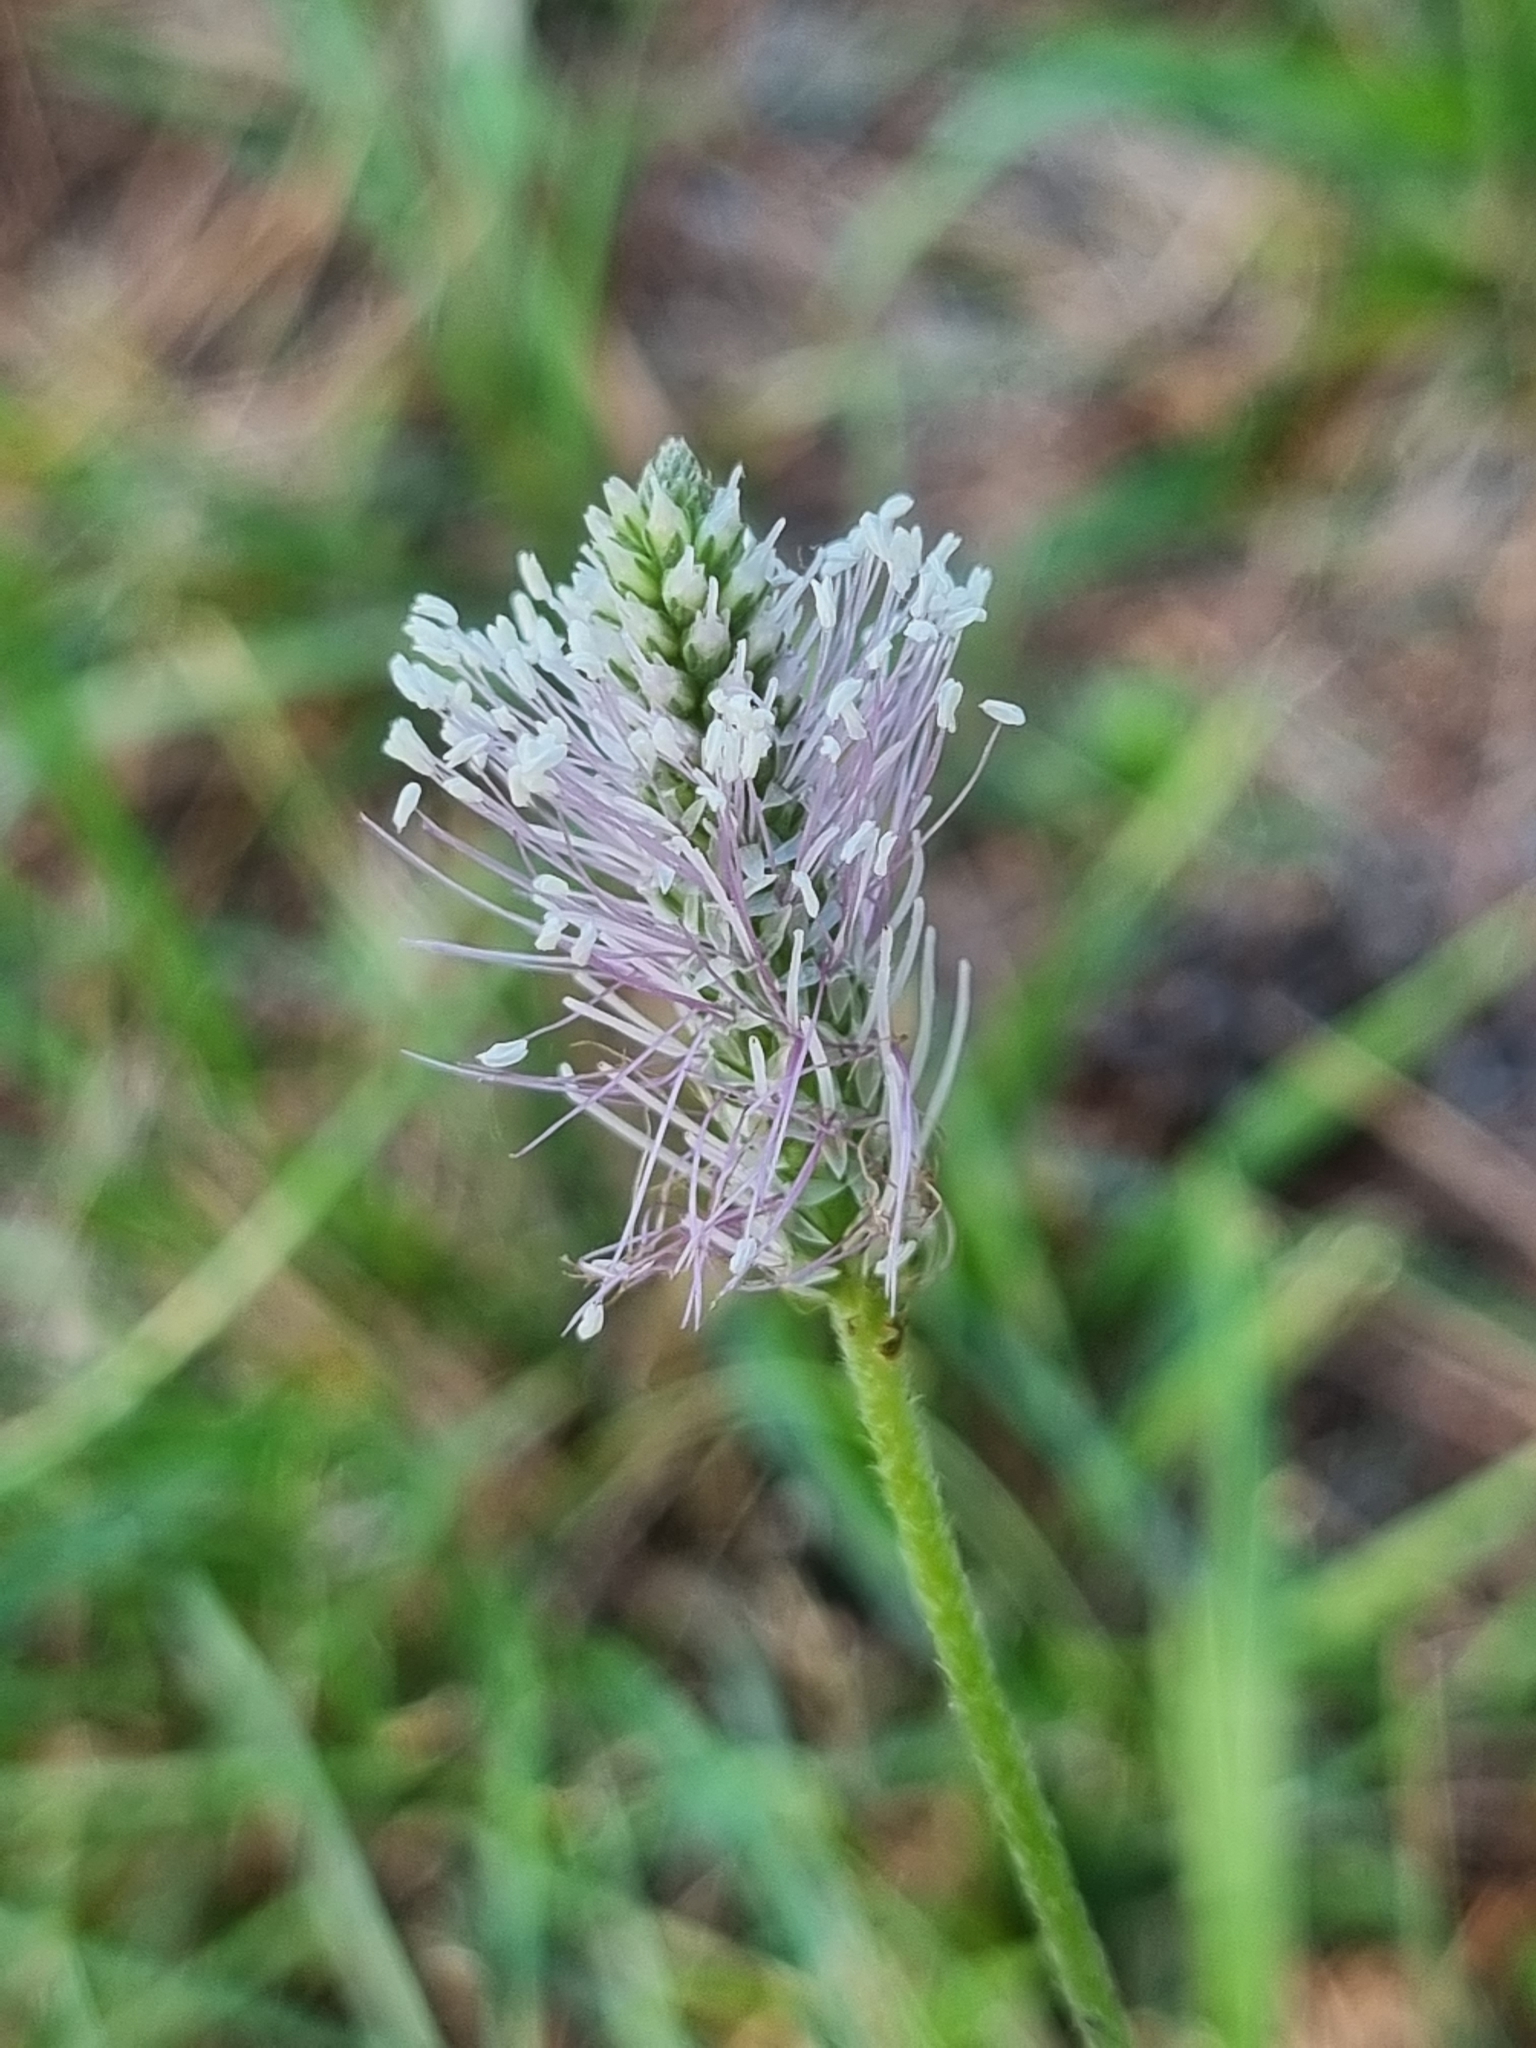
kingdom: Plantae
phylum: Tracheophyta
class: Magnoliopsida
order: Lamiales
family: Plantaginaceae
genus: Plantago
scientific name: Plantago media
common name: Hoary plantain
